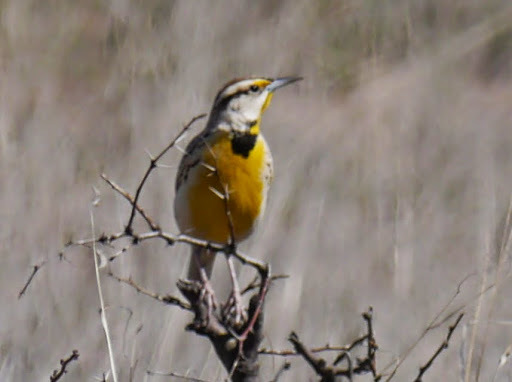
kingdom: Animalia
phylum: Chordata
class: Aves
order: Passeriformes
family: Icteridae
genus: Sturnella
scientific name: Sturnella lilianae
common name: Lilian's meadowlark
